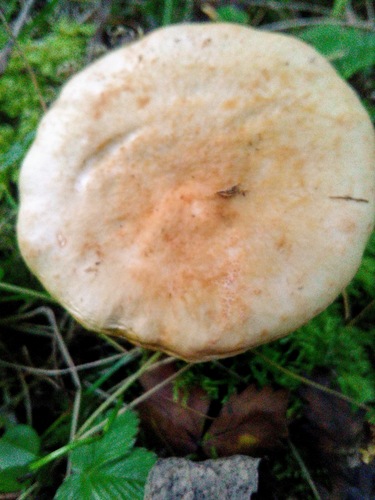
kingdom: Fungi
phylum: Basidiomycota
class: Agaricomycetes
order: Agaricales
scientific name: Agaricales
